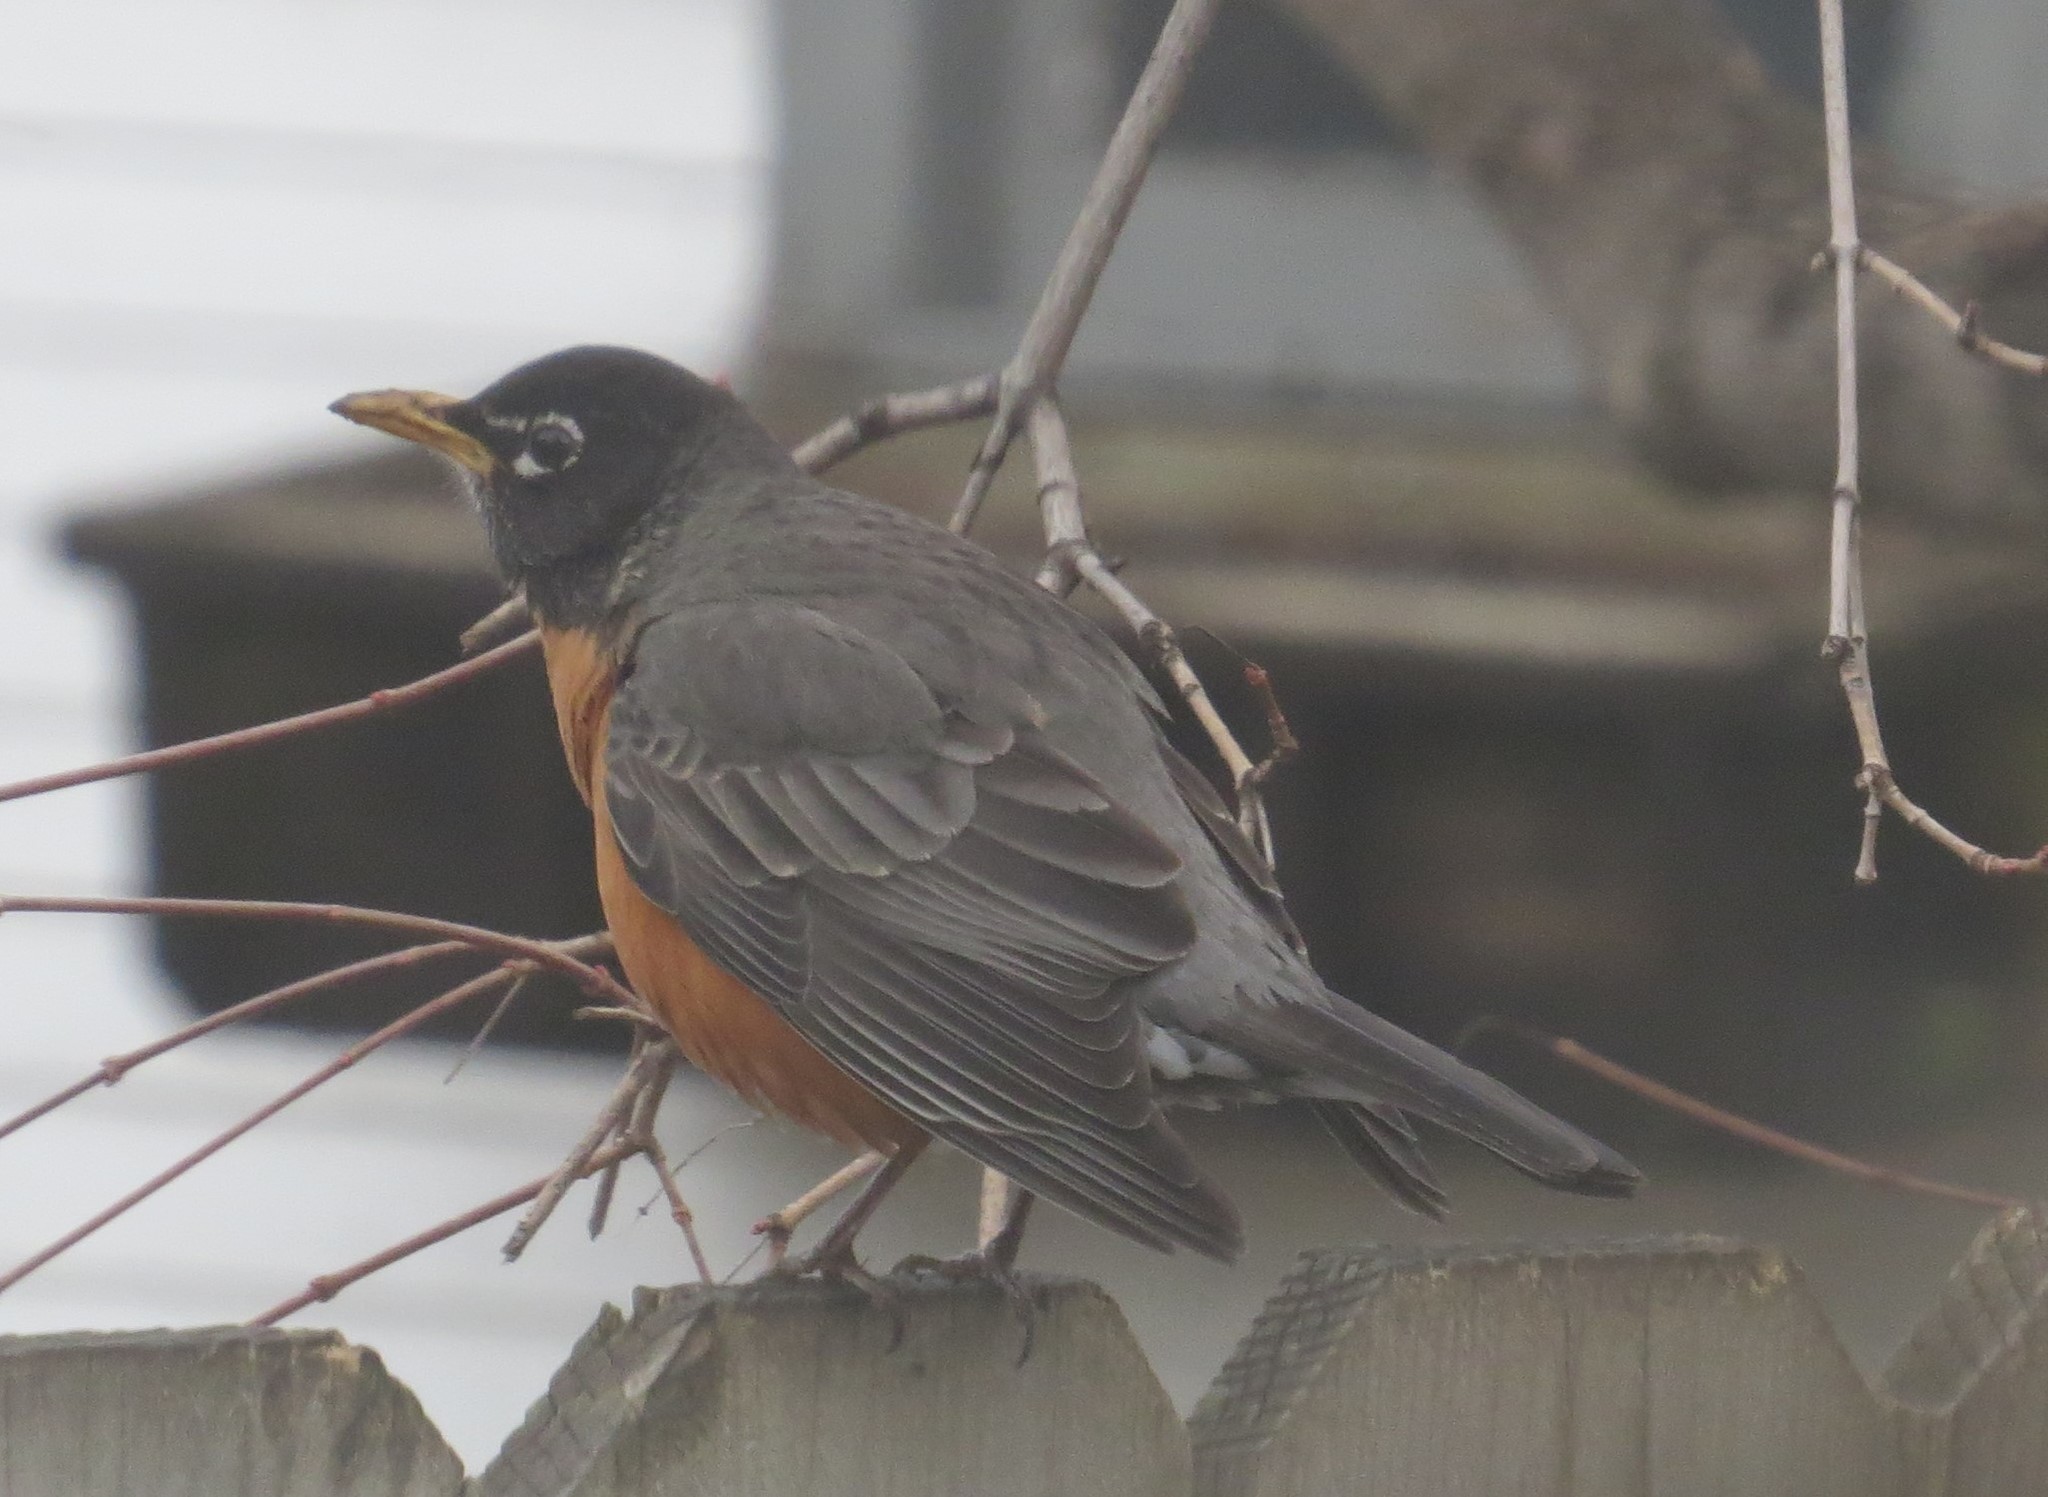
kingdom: Animalia
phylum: Chordata
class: Aves
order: Passeriformes
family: Turdidae
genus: Turdus
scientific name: Turdus migratorius
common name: American robin
